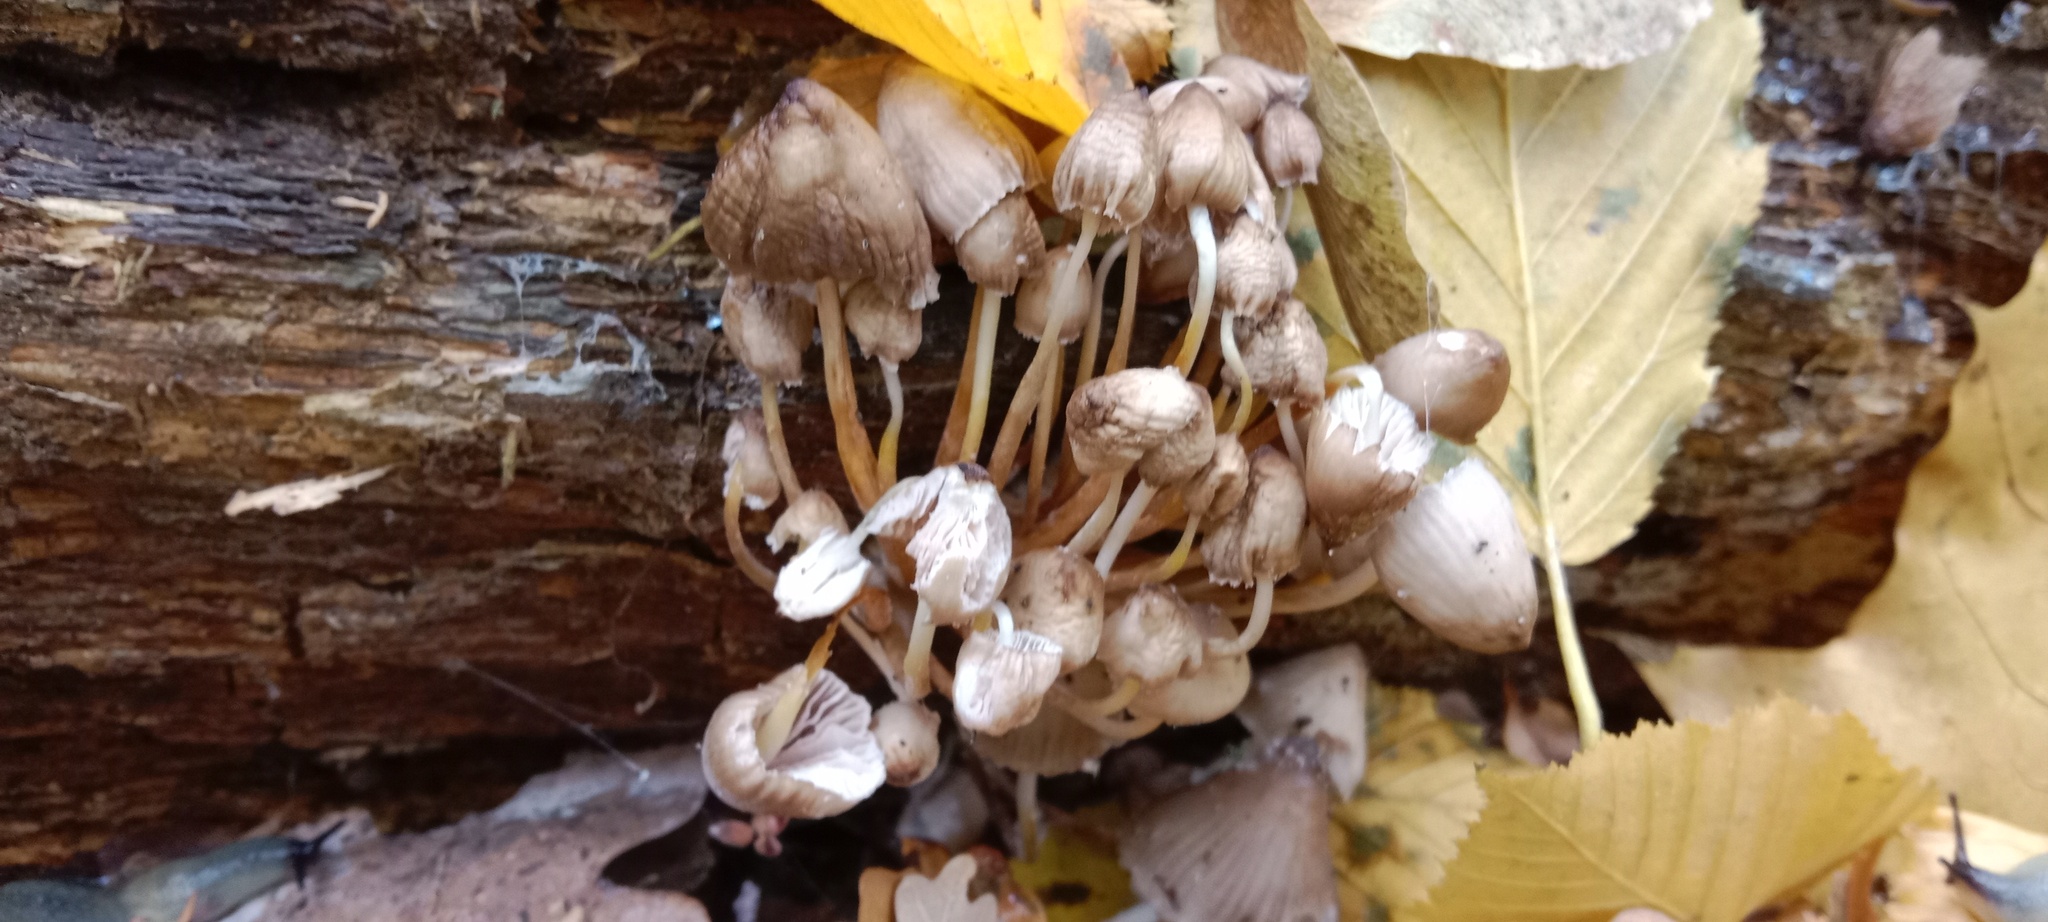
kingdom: Fungi
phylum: Basidiomycota
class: Agaricomycetes
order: Agaricales
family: Mycenaceae
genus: Mycena
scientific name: Mycena inclinata
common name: Clustered bonnet
